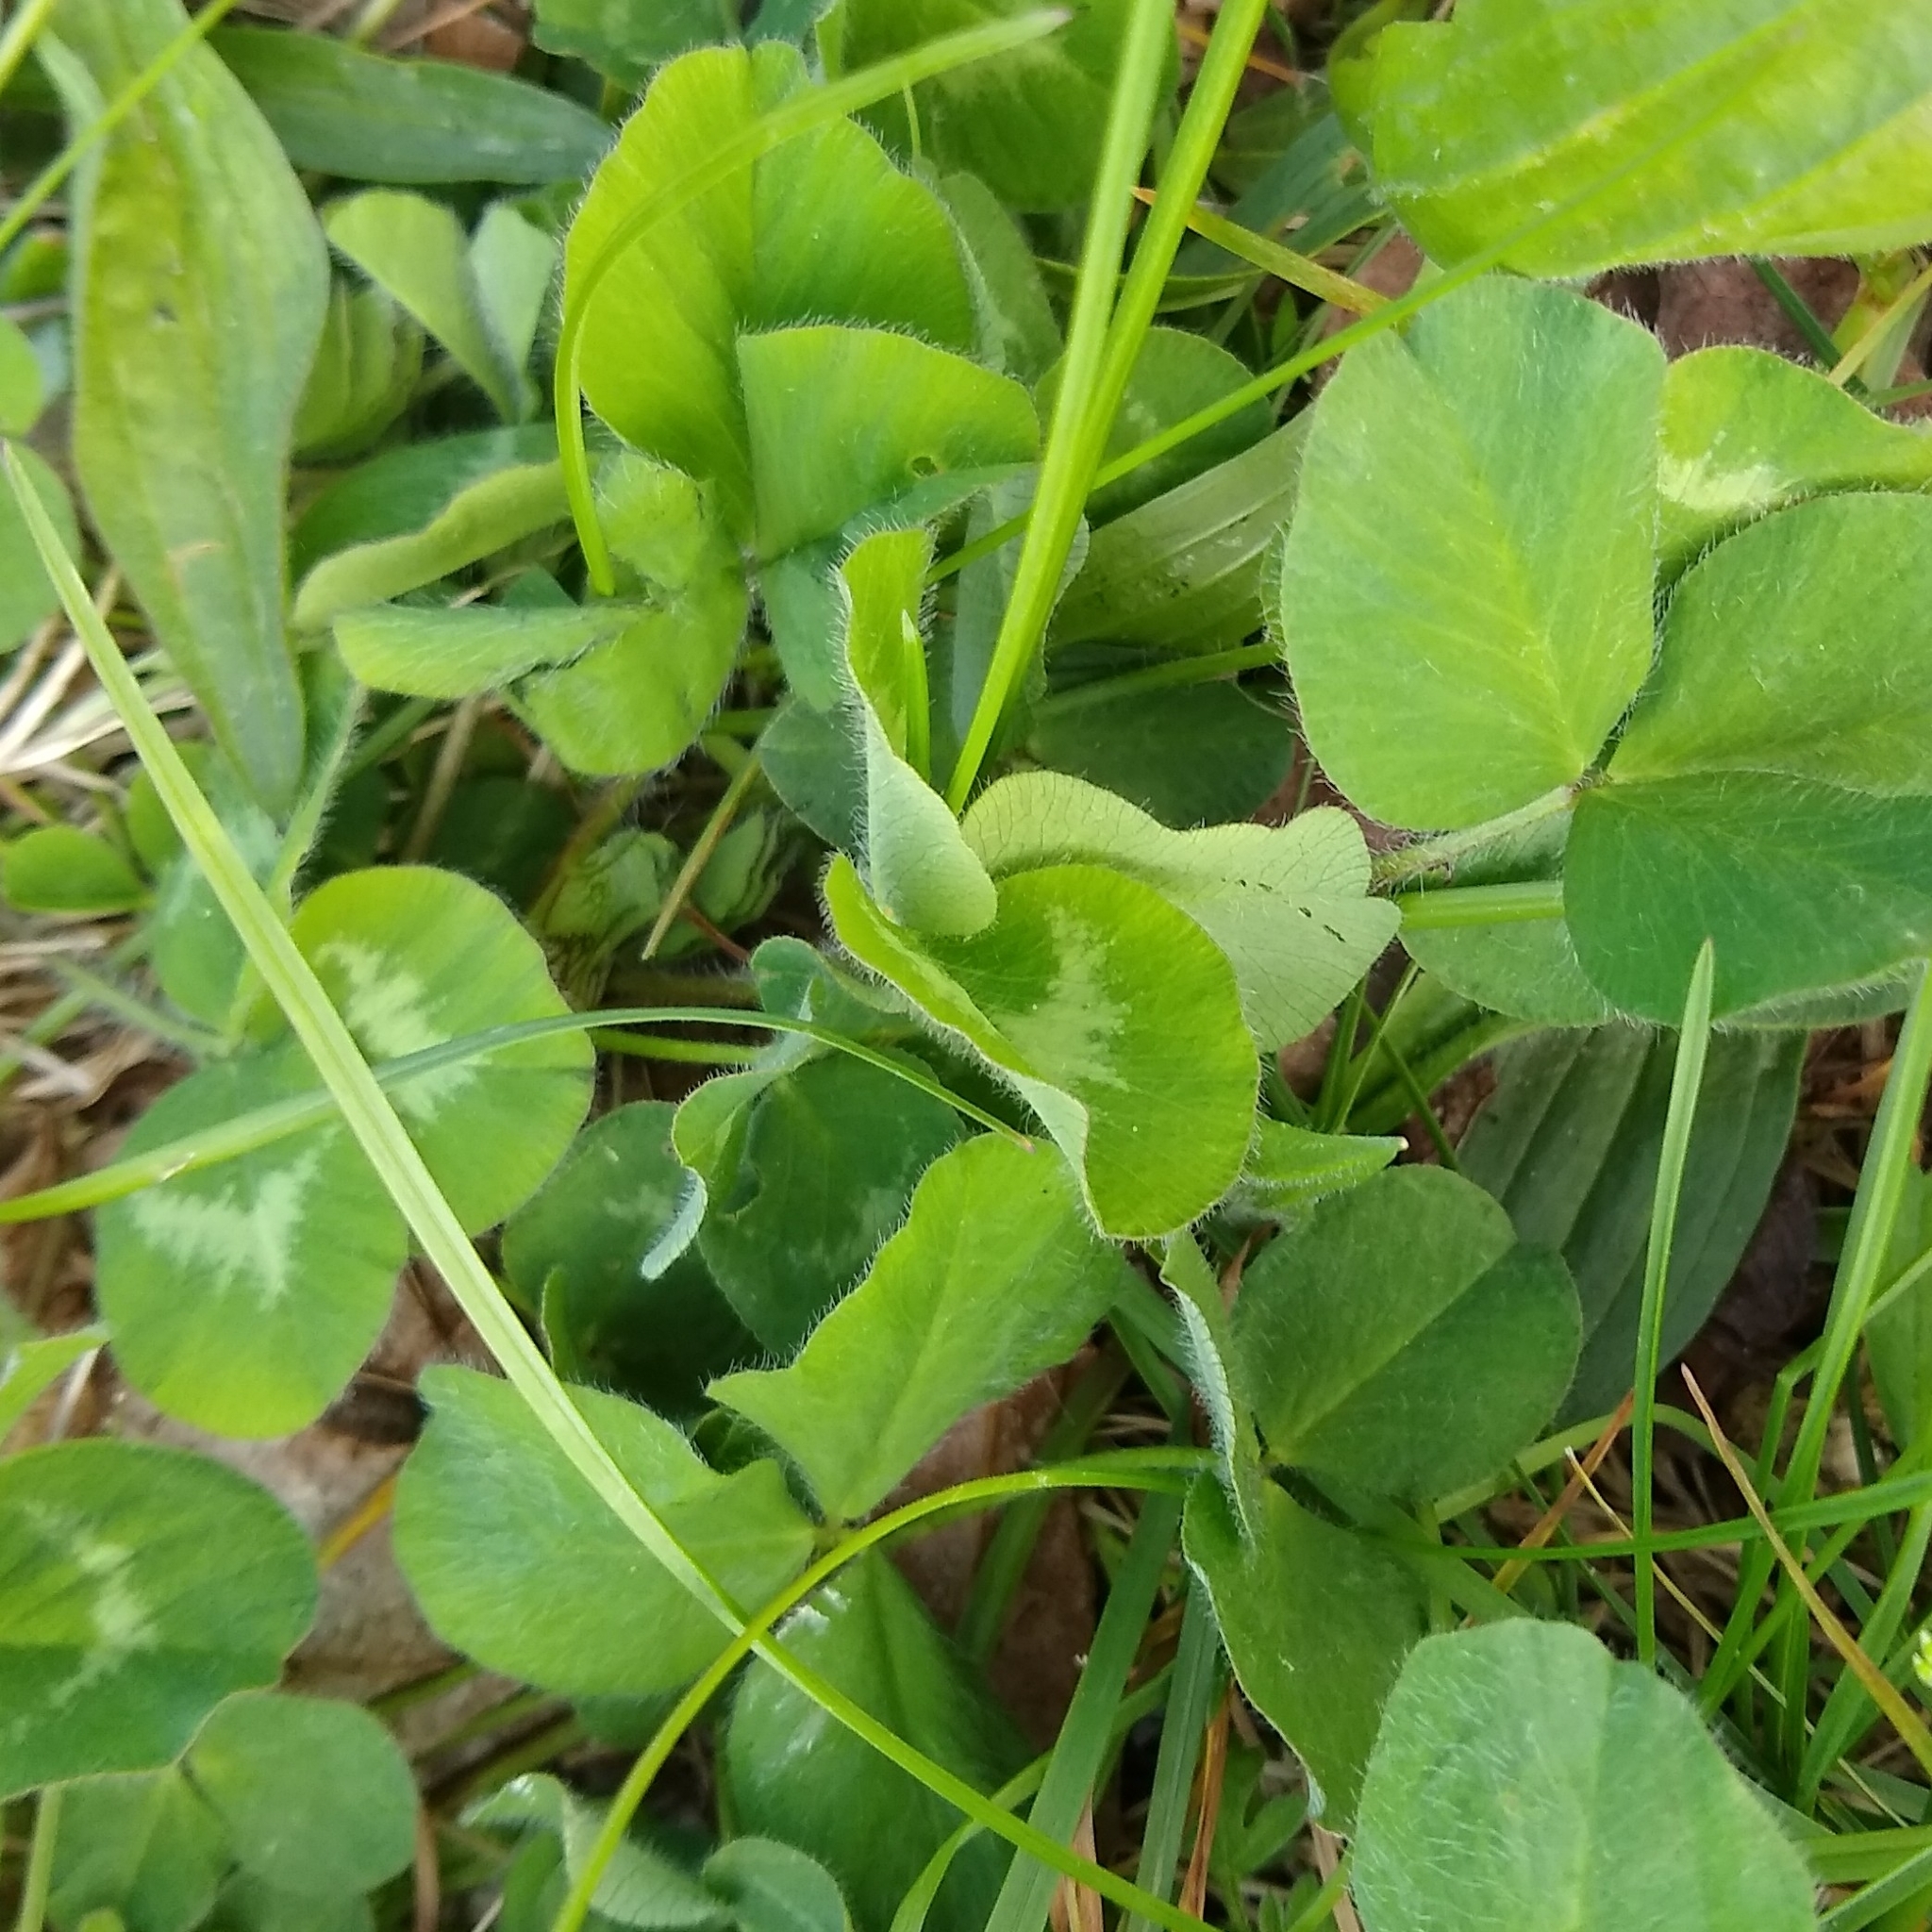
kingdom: Plantae
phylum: Tracheophyta
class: Magnoliopsida
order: Fabales
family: Fabaceae
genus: Trifolium
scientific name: Trifolium pratense
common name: Red clover
